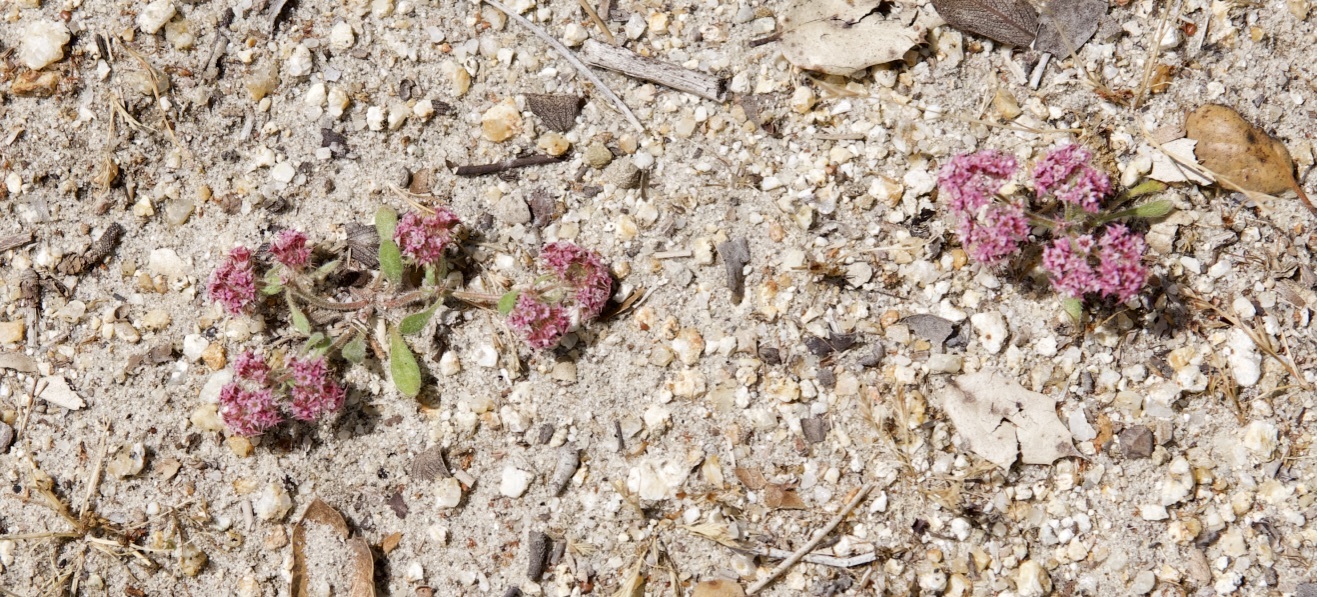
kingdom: Plantae
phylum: Tracheophyta
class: Magnoliopsida
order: Caryophyllales
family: Polygonaceae
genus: Chorizanthe
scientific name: Chorizanthe pungens
